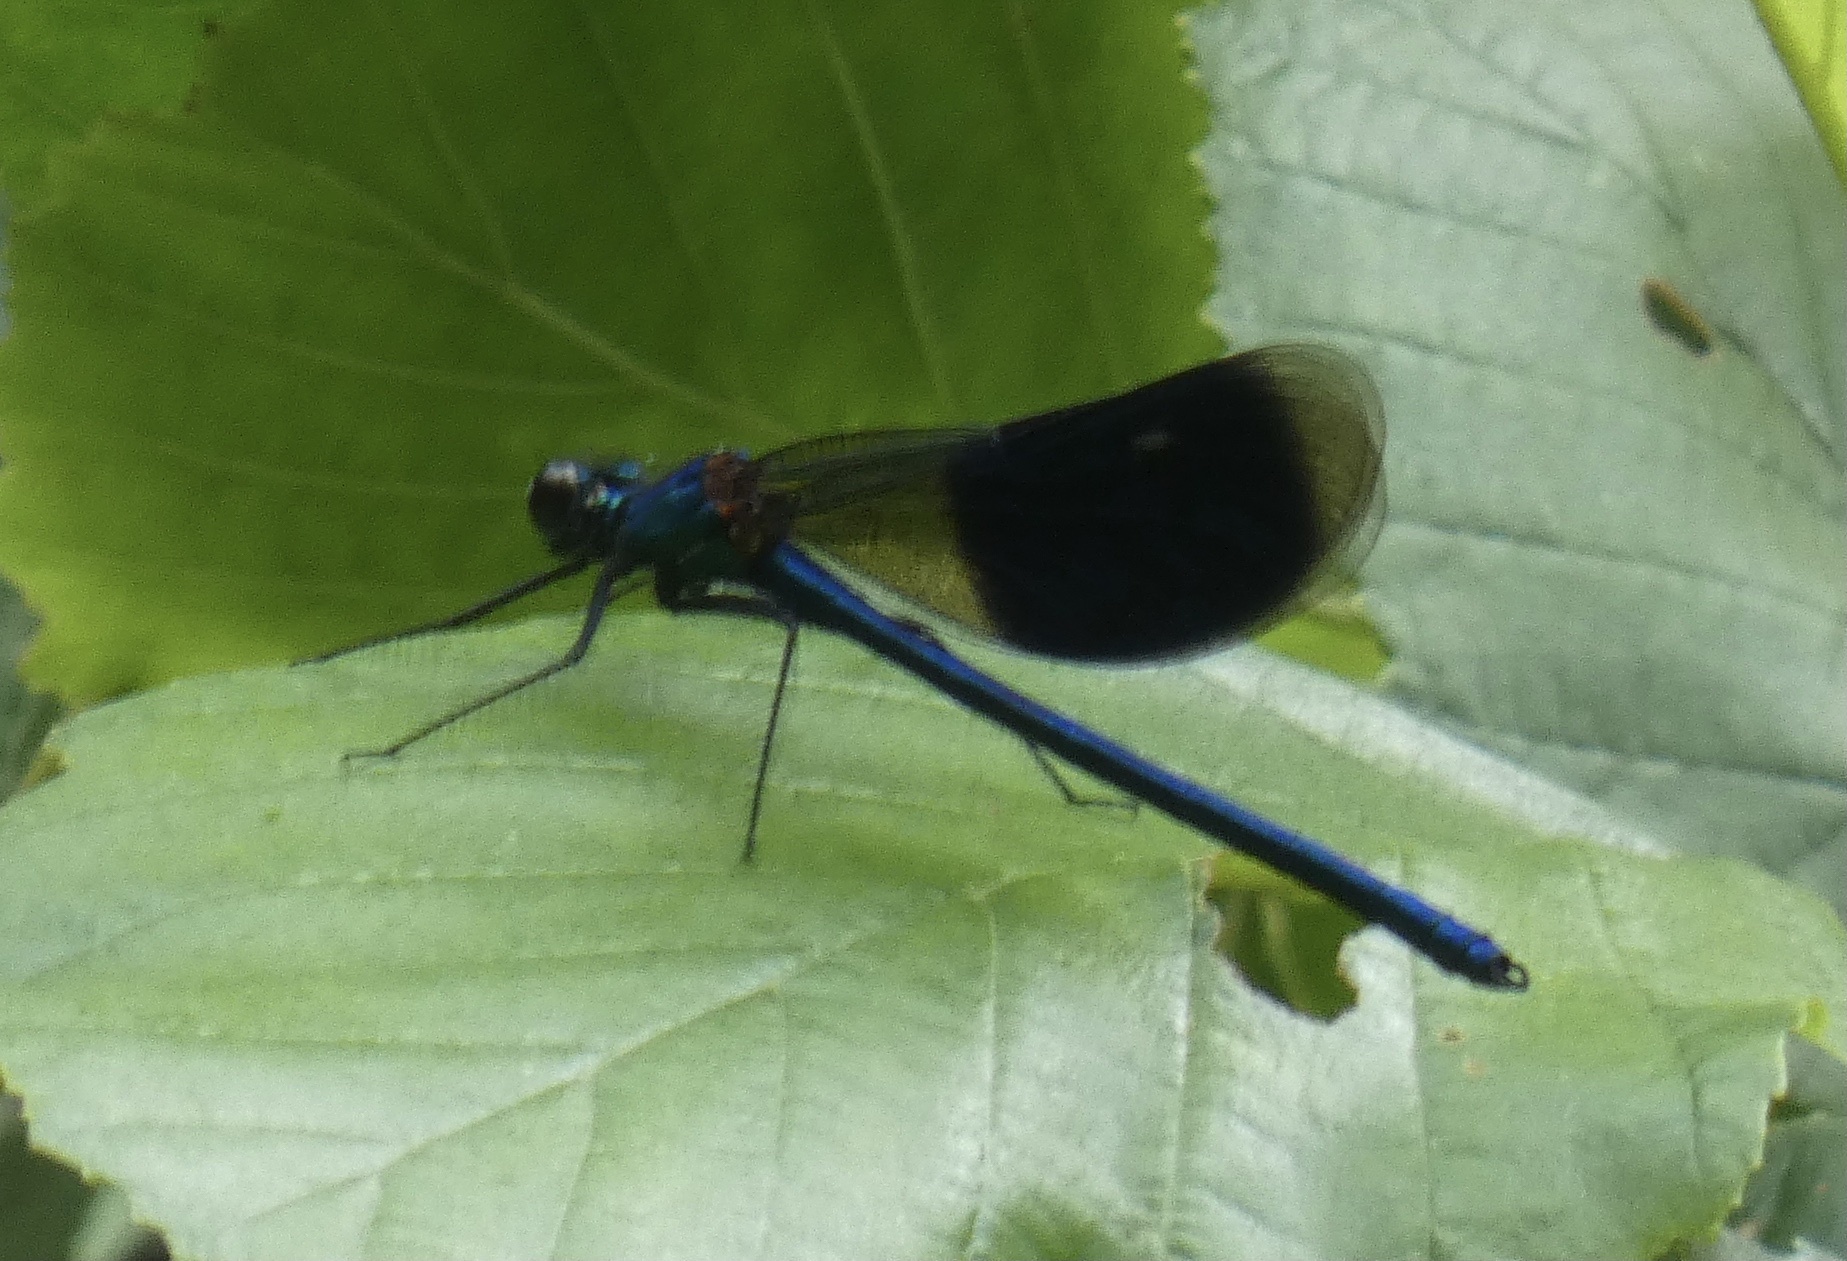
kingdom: Animalia
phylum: Arthropoda
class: Insecta
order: Odonata
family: Calopterygidae
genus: Calopteryx
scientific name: Calopteryx splendens
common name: Banded demoiselle
